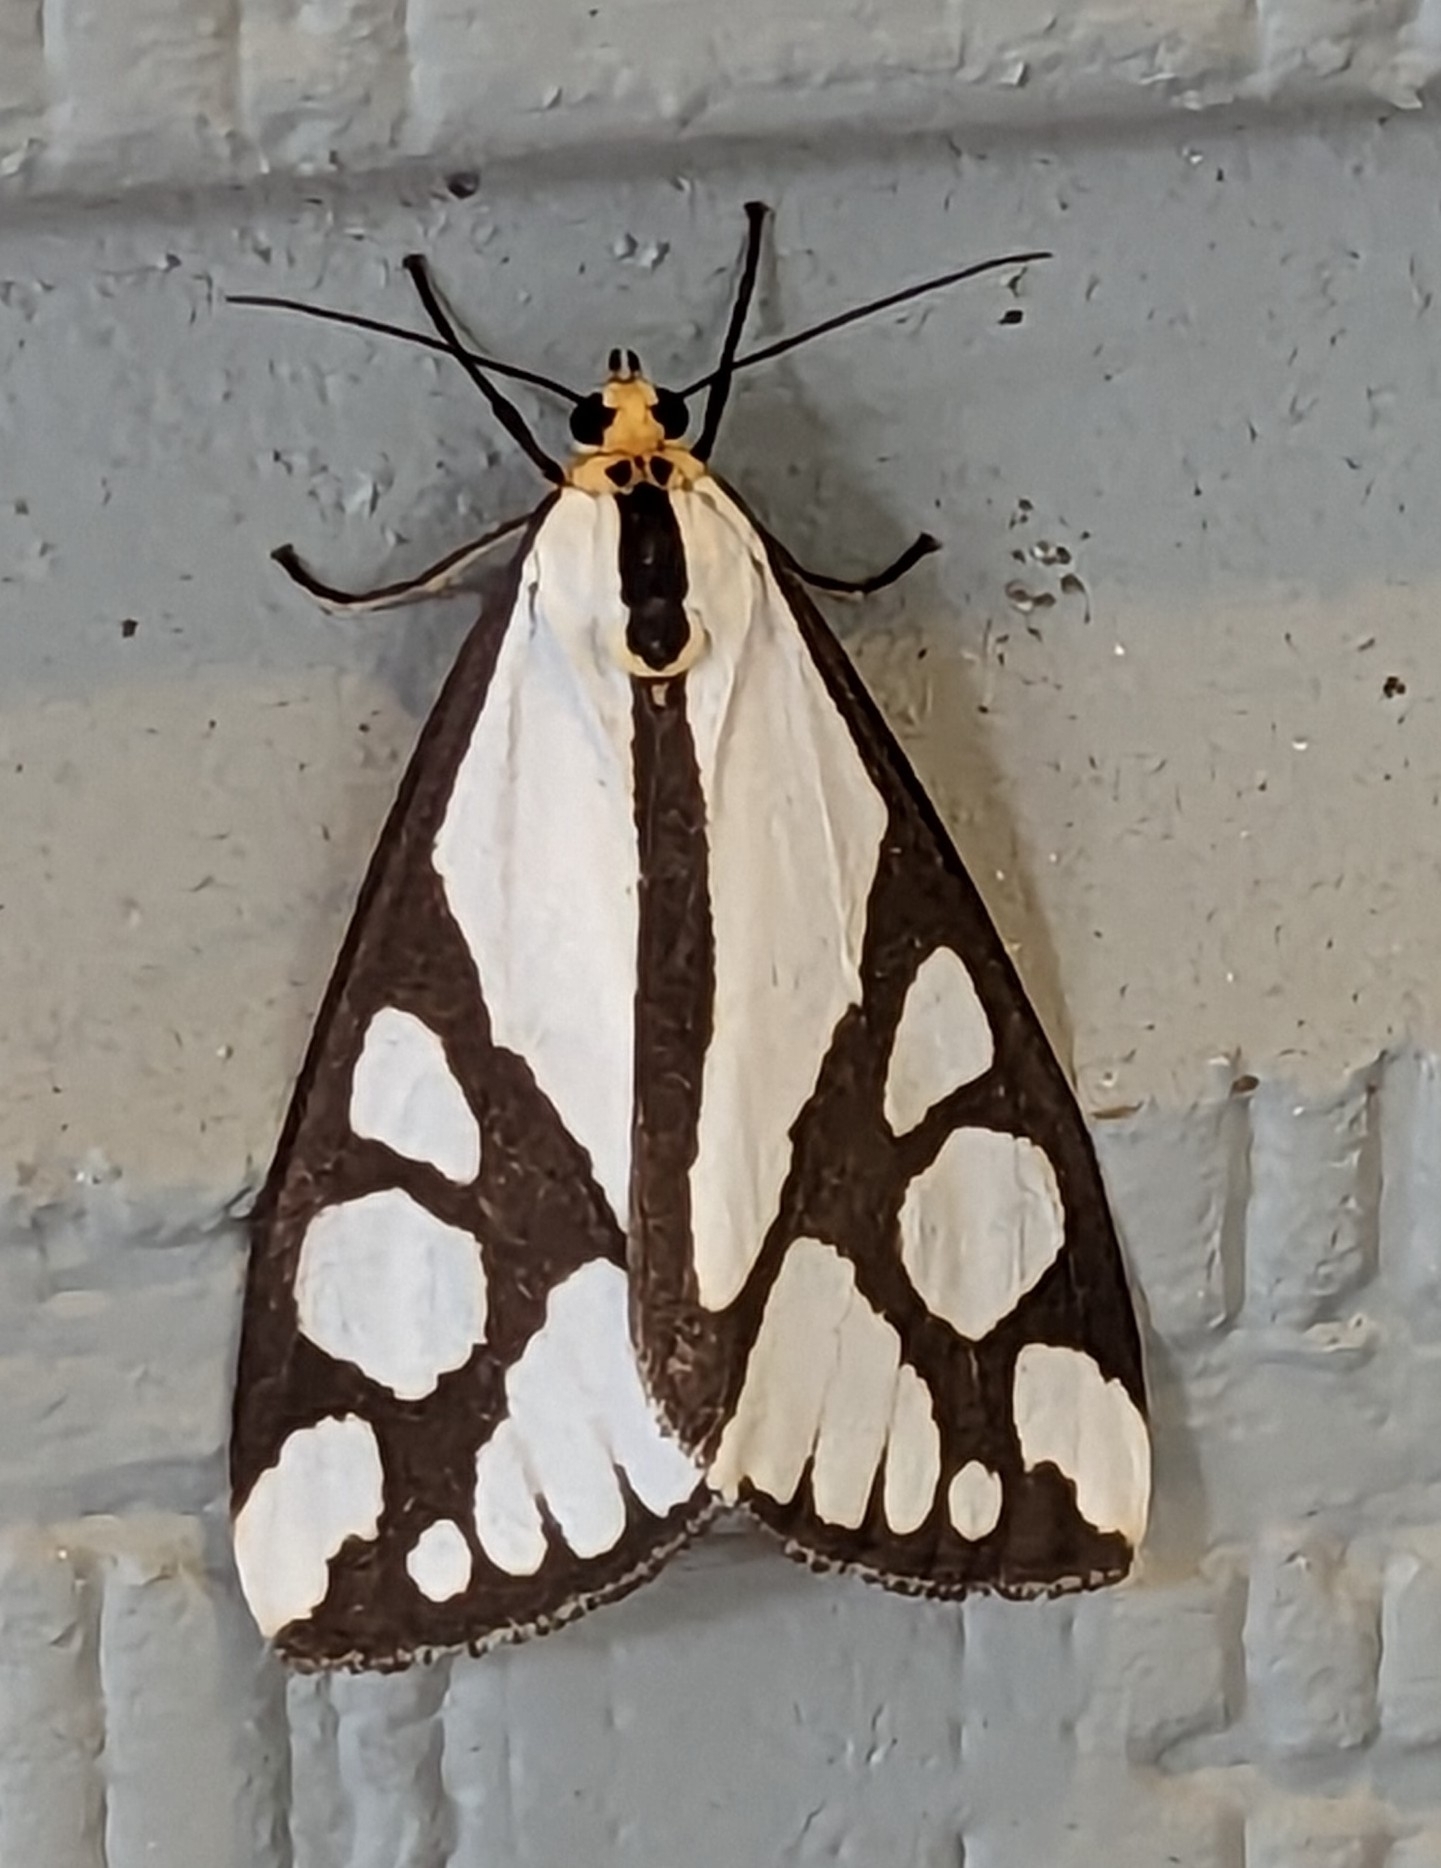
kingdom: Animalia
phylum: Arthropoda
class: Insecta
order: Lepidoptera
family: Erebidae
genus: Haploa
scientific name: Haploa reversa
